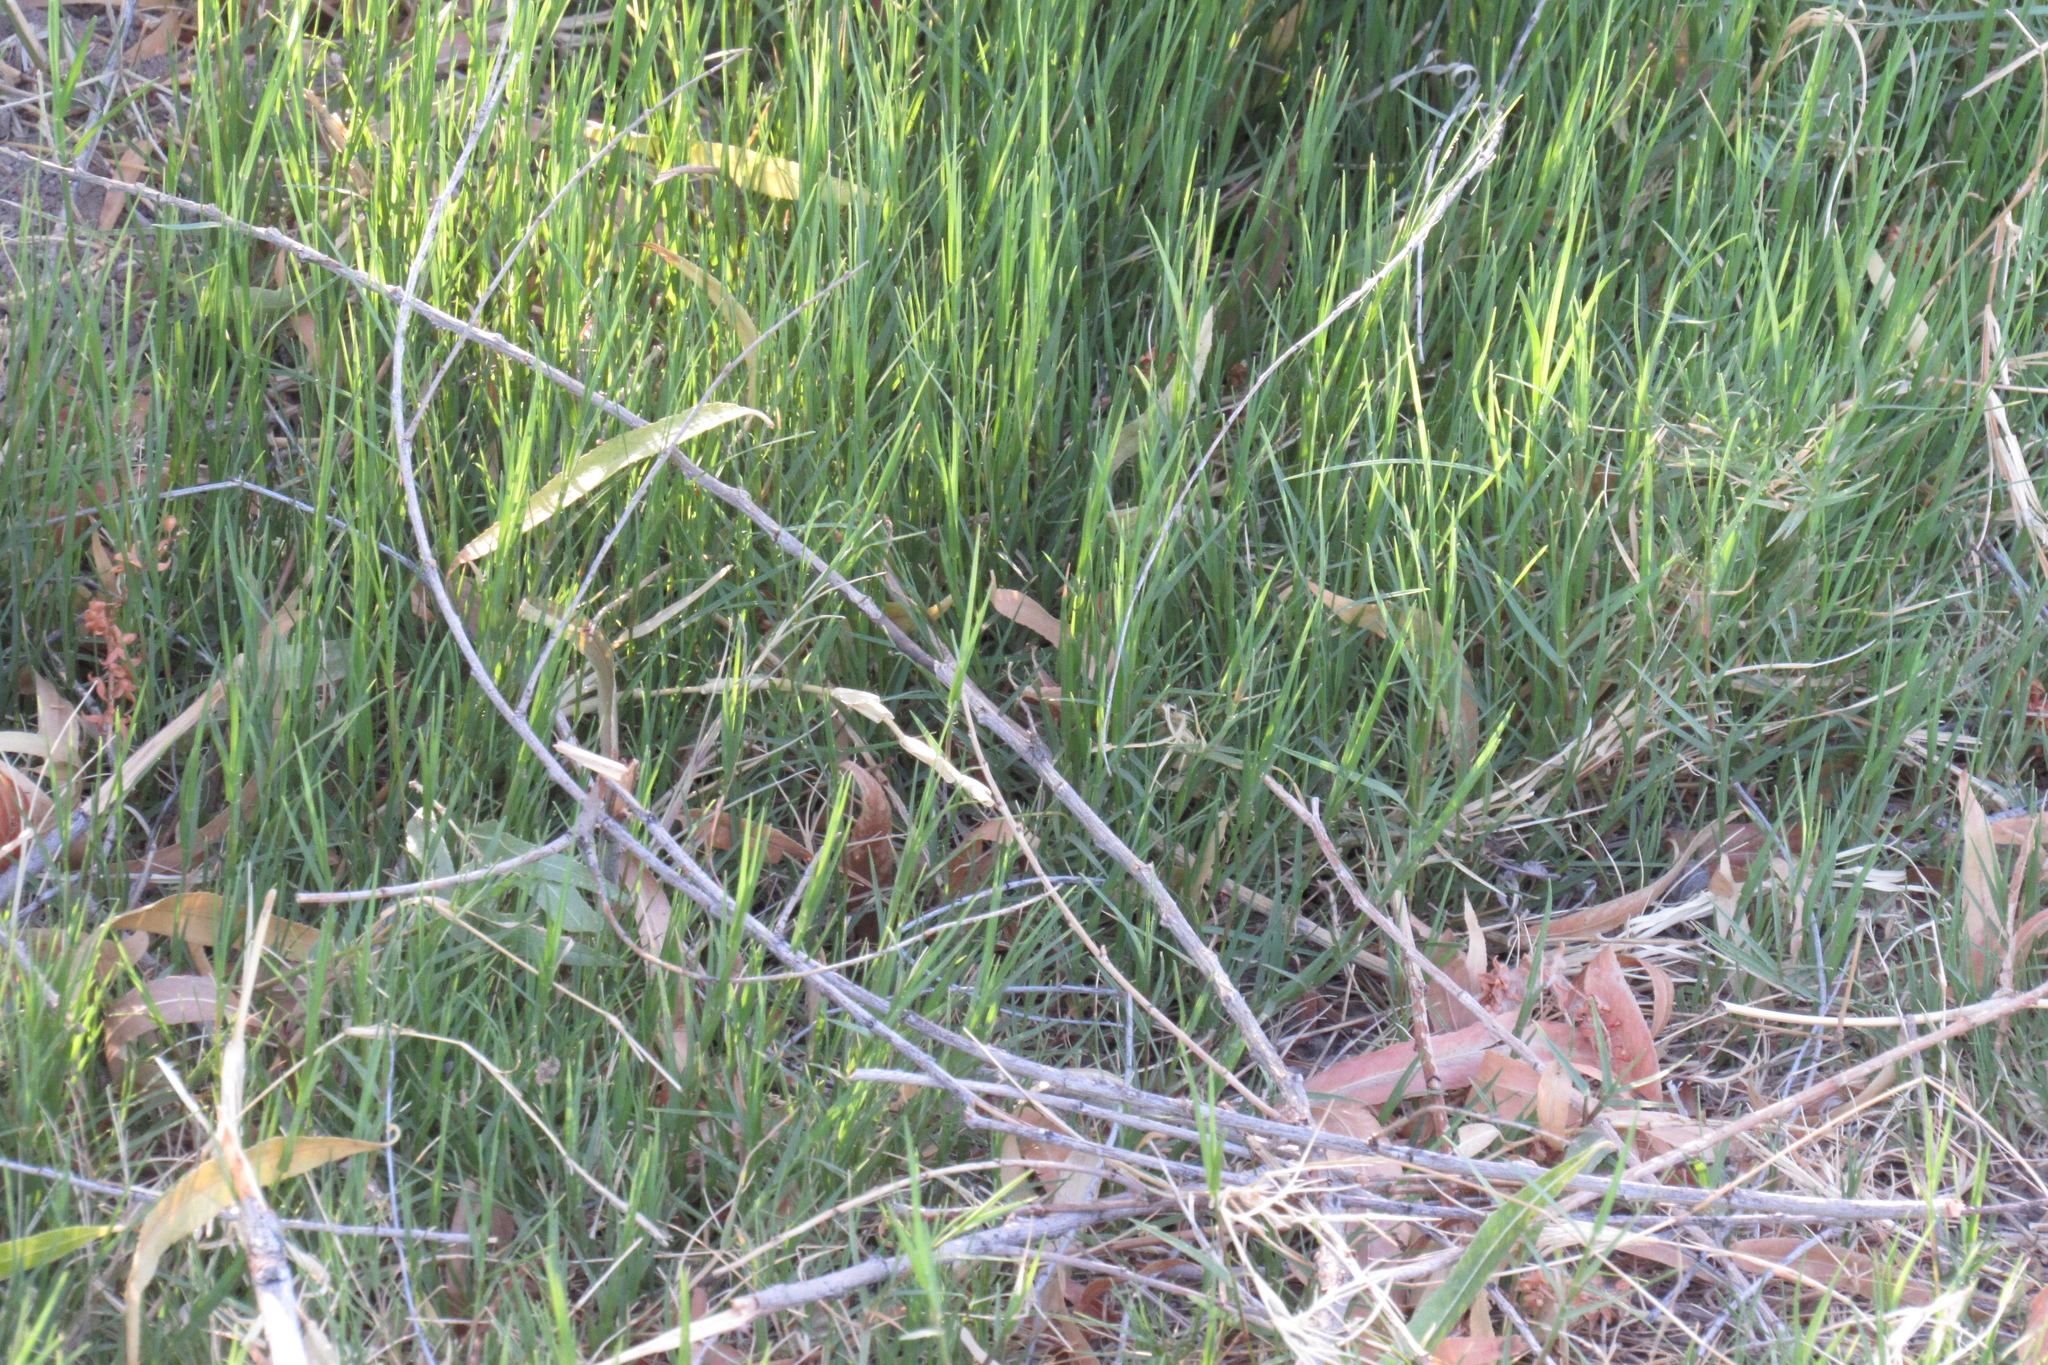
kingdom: Animalia
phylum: Arthropoda
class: Insecta
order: Odonata
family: Libellulidae
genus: Pachydiplax
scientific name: Pachydiplax longipennis
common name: Blue dasher
